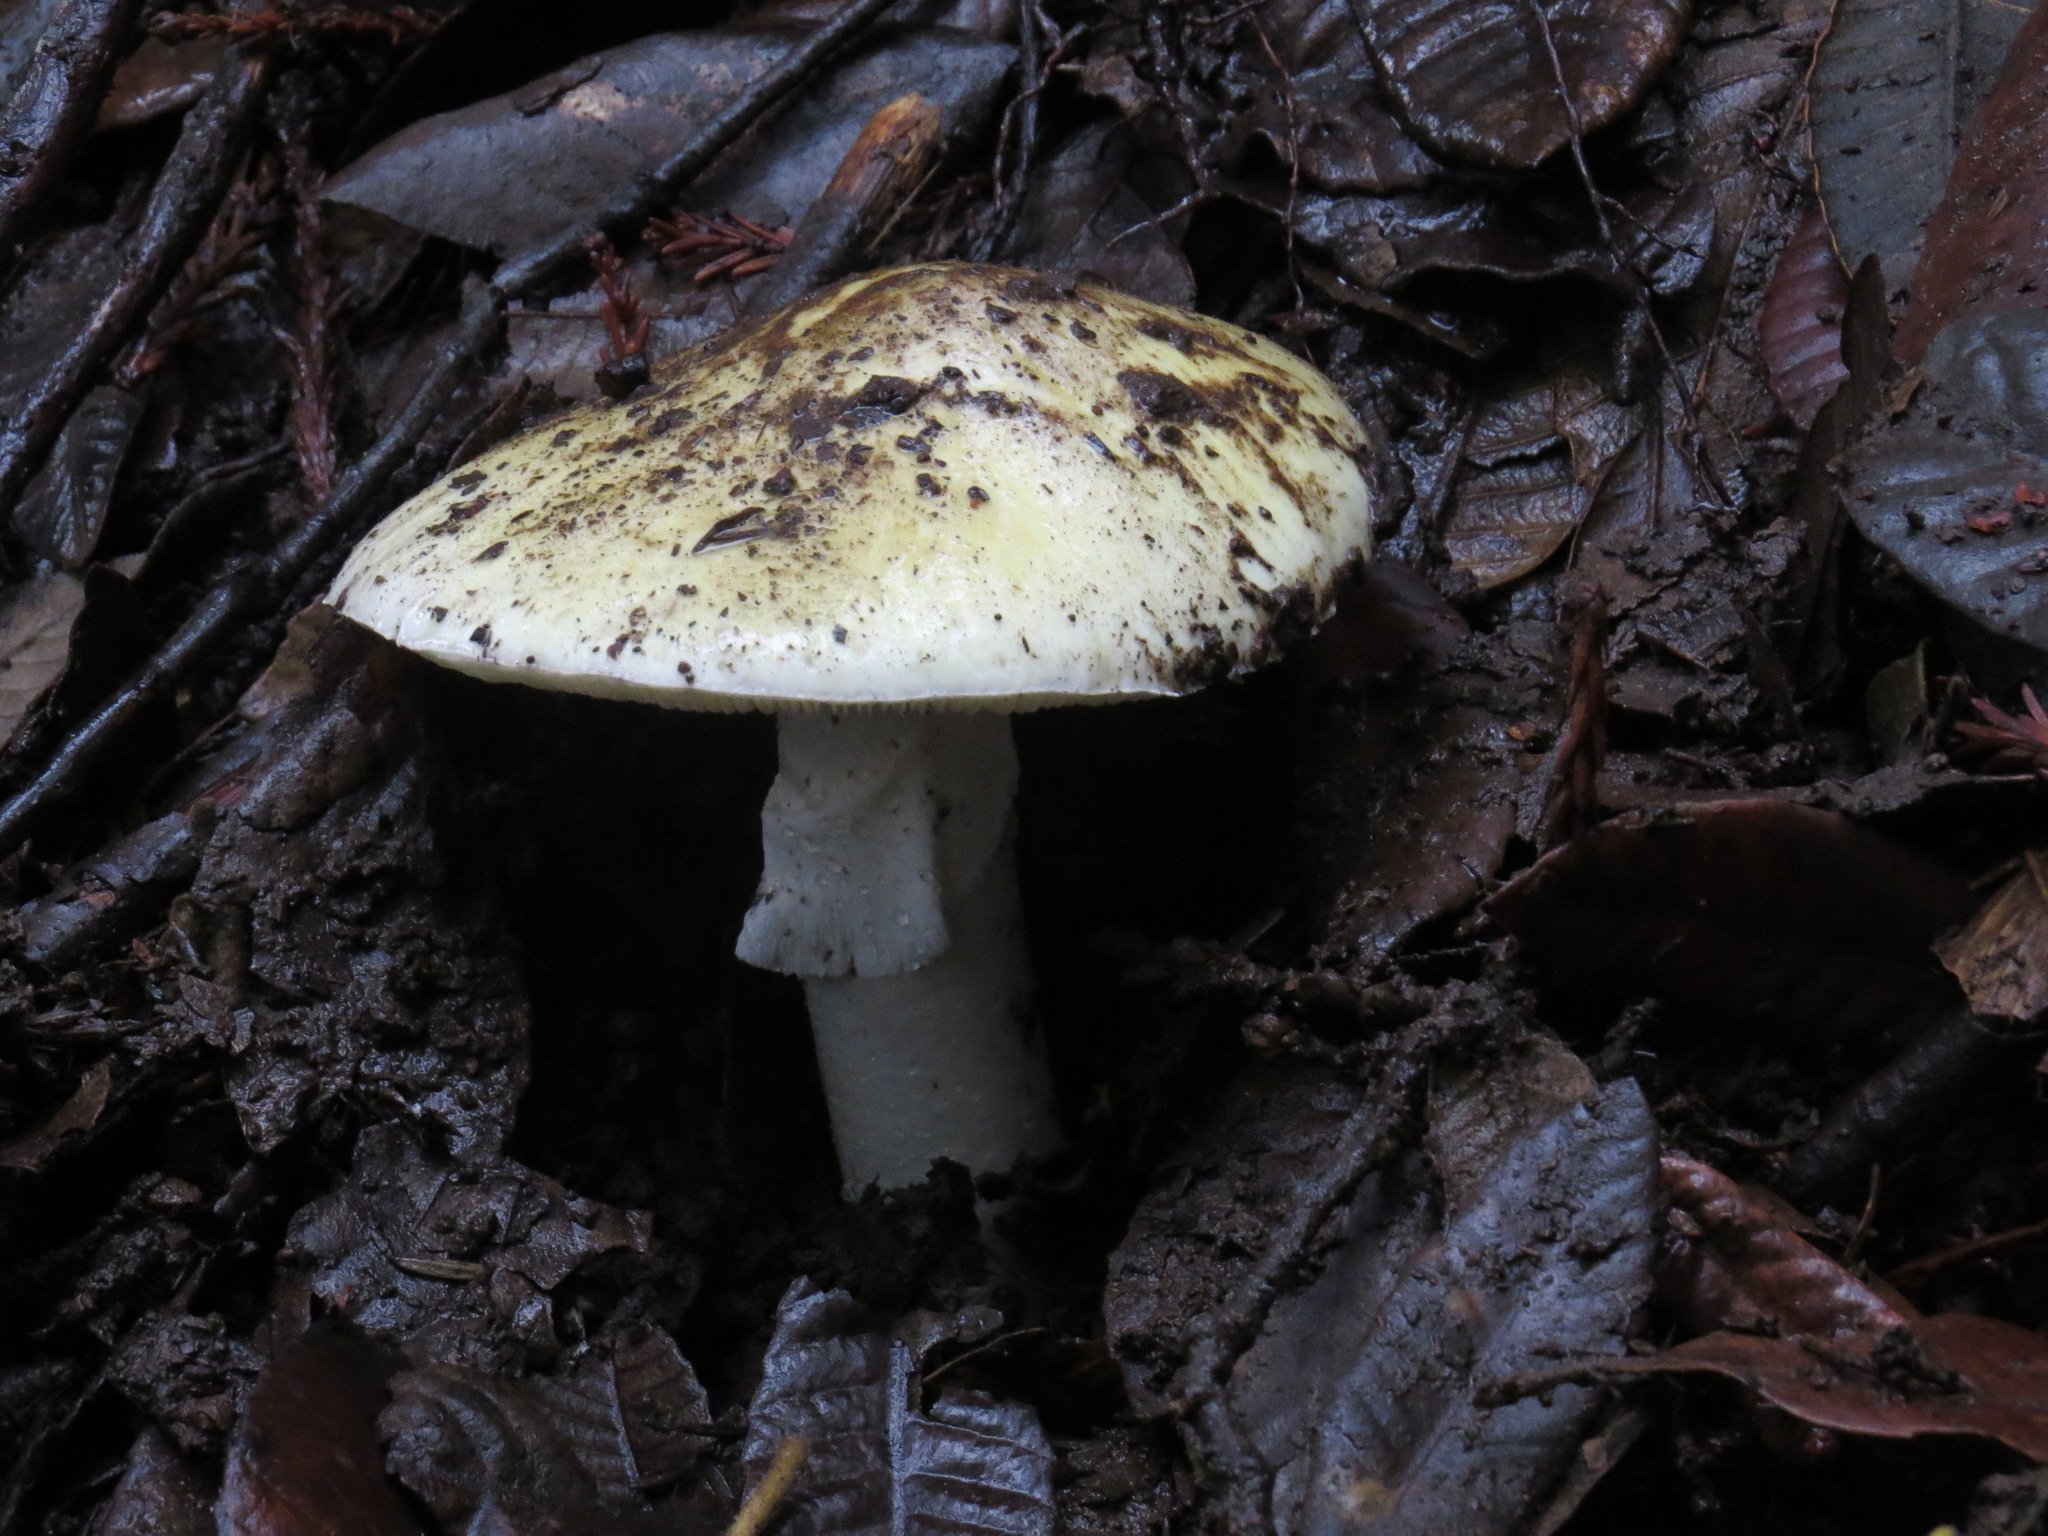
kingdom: Fungi
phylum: Basidiomycota
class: Agaricomycetes
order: Agaricales
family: Amanitaceae
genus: Amanita
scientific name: Amanita phalloides
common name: Death cap
